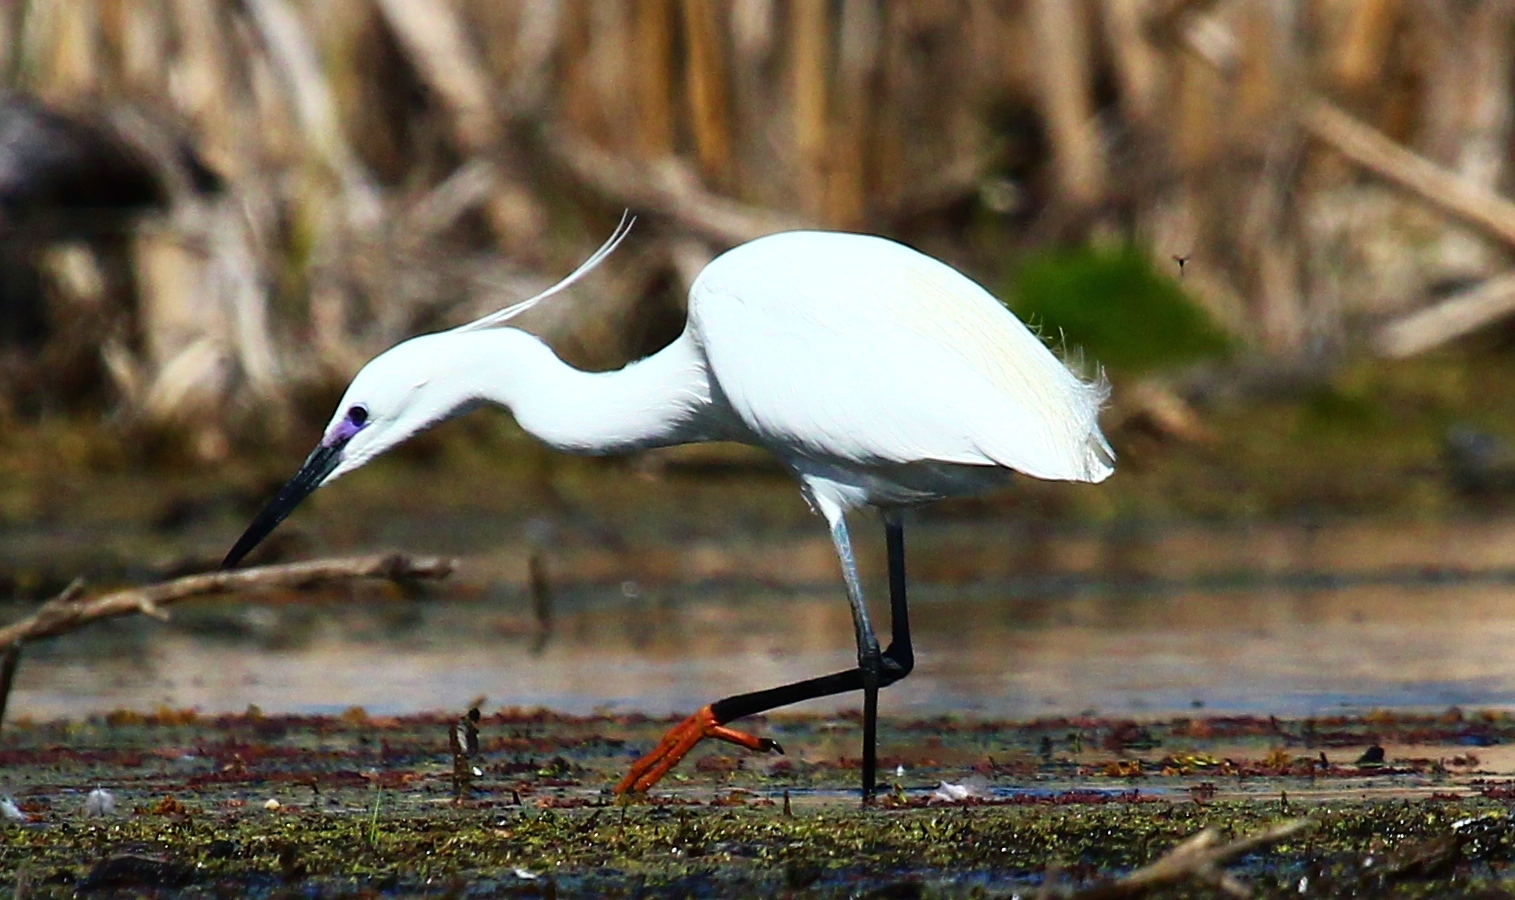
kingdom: Animalia
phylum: Chordata
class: Aves
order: Pelecaniformes
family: Ardeidae
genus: Egretta
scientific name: Egretta garzetta
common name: Little egret
